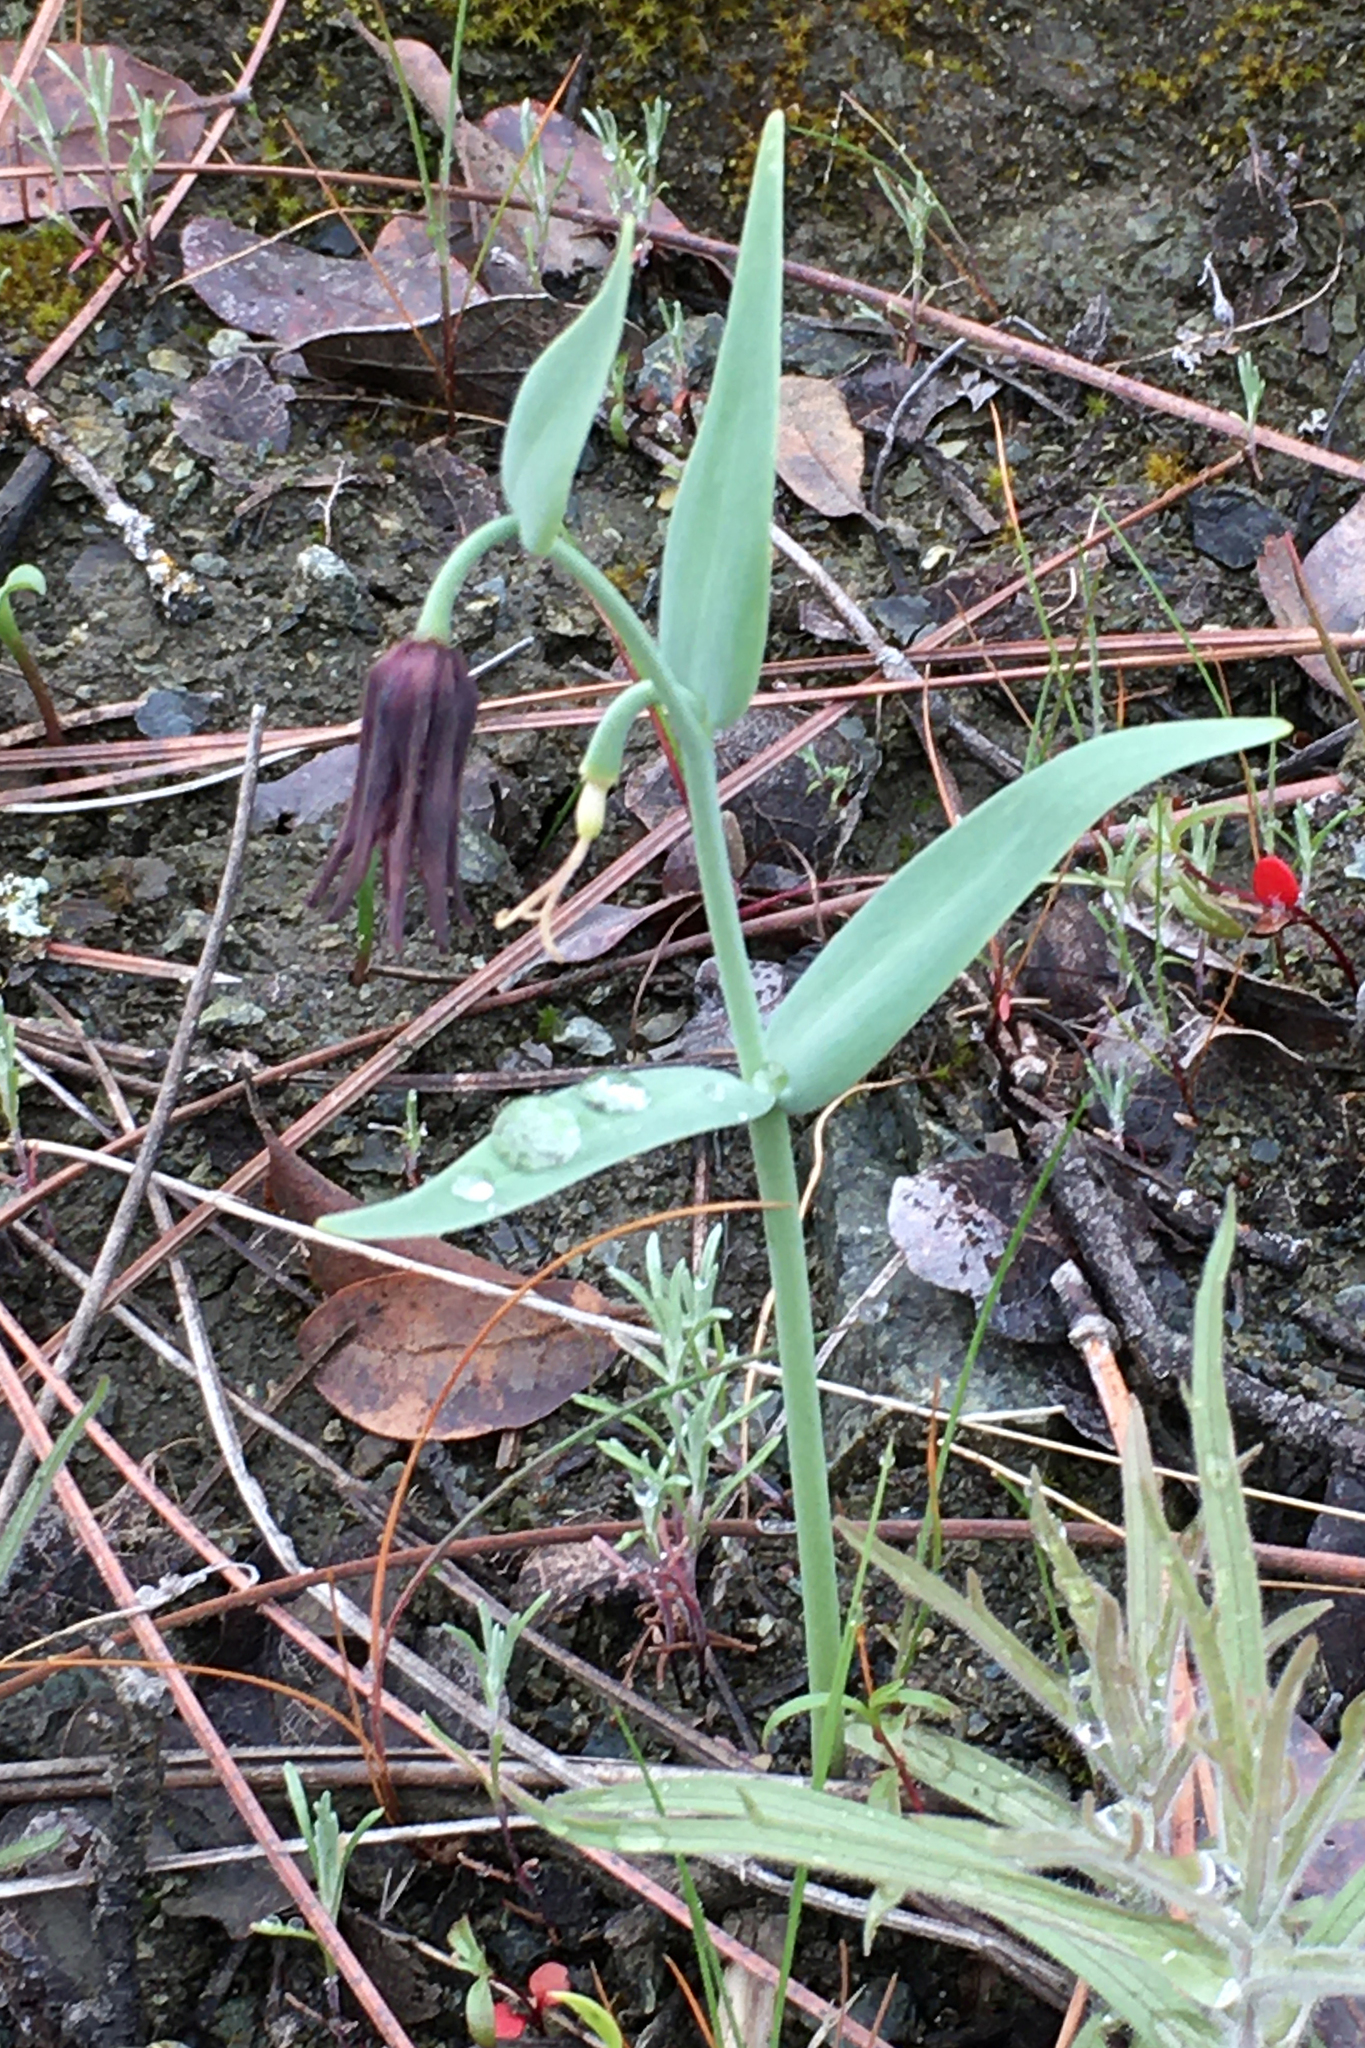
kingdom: Plantae
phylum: Tracheophyta
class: Liliopsida
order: Liliales
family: Liliaceae
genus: Fritillaria
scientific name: Fritillaria affinis
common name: Ojai fritillary
